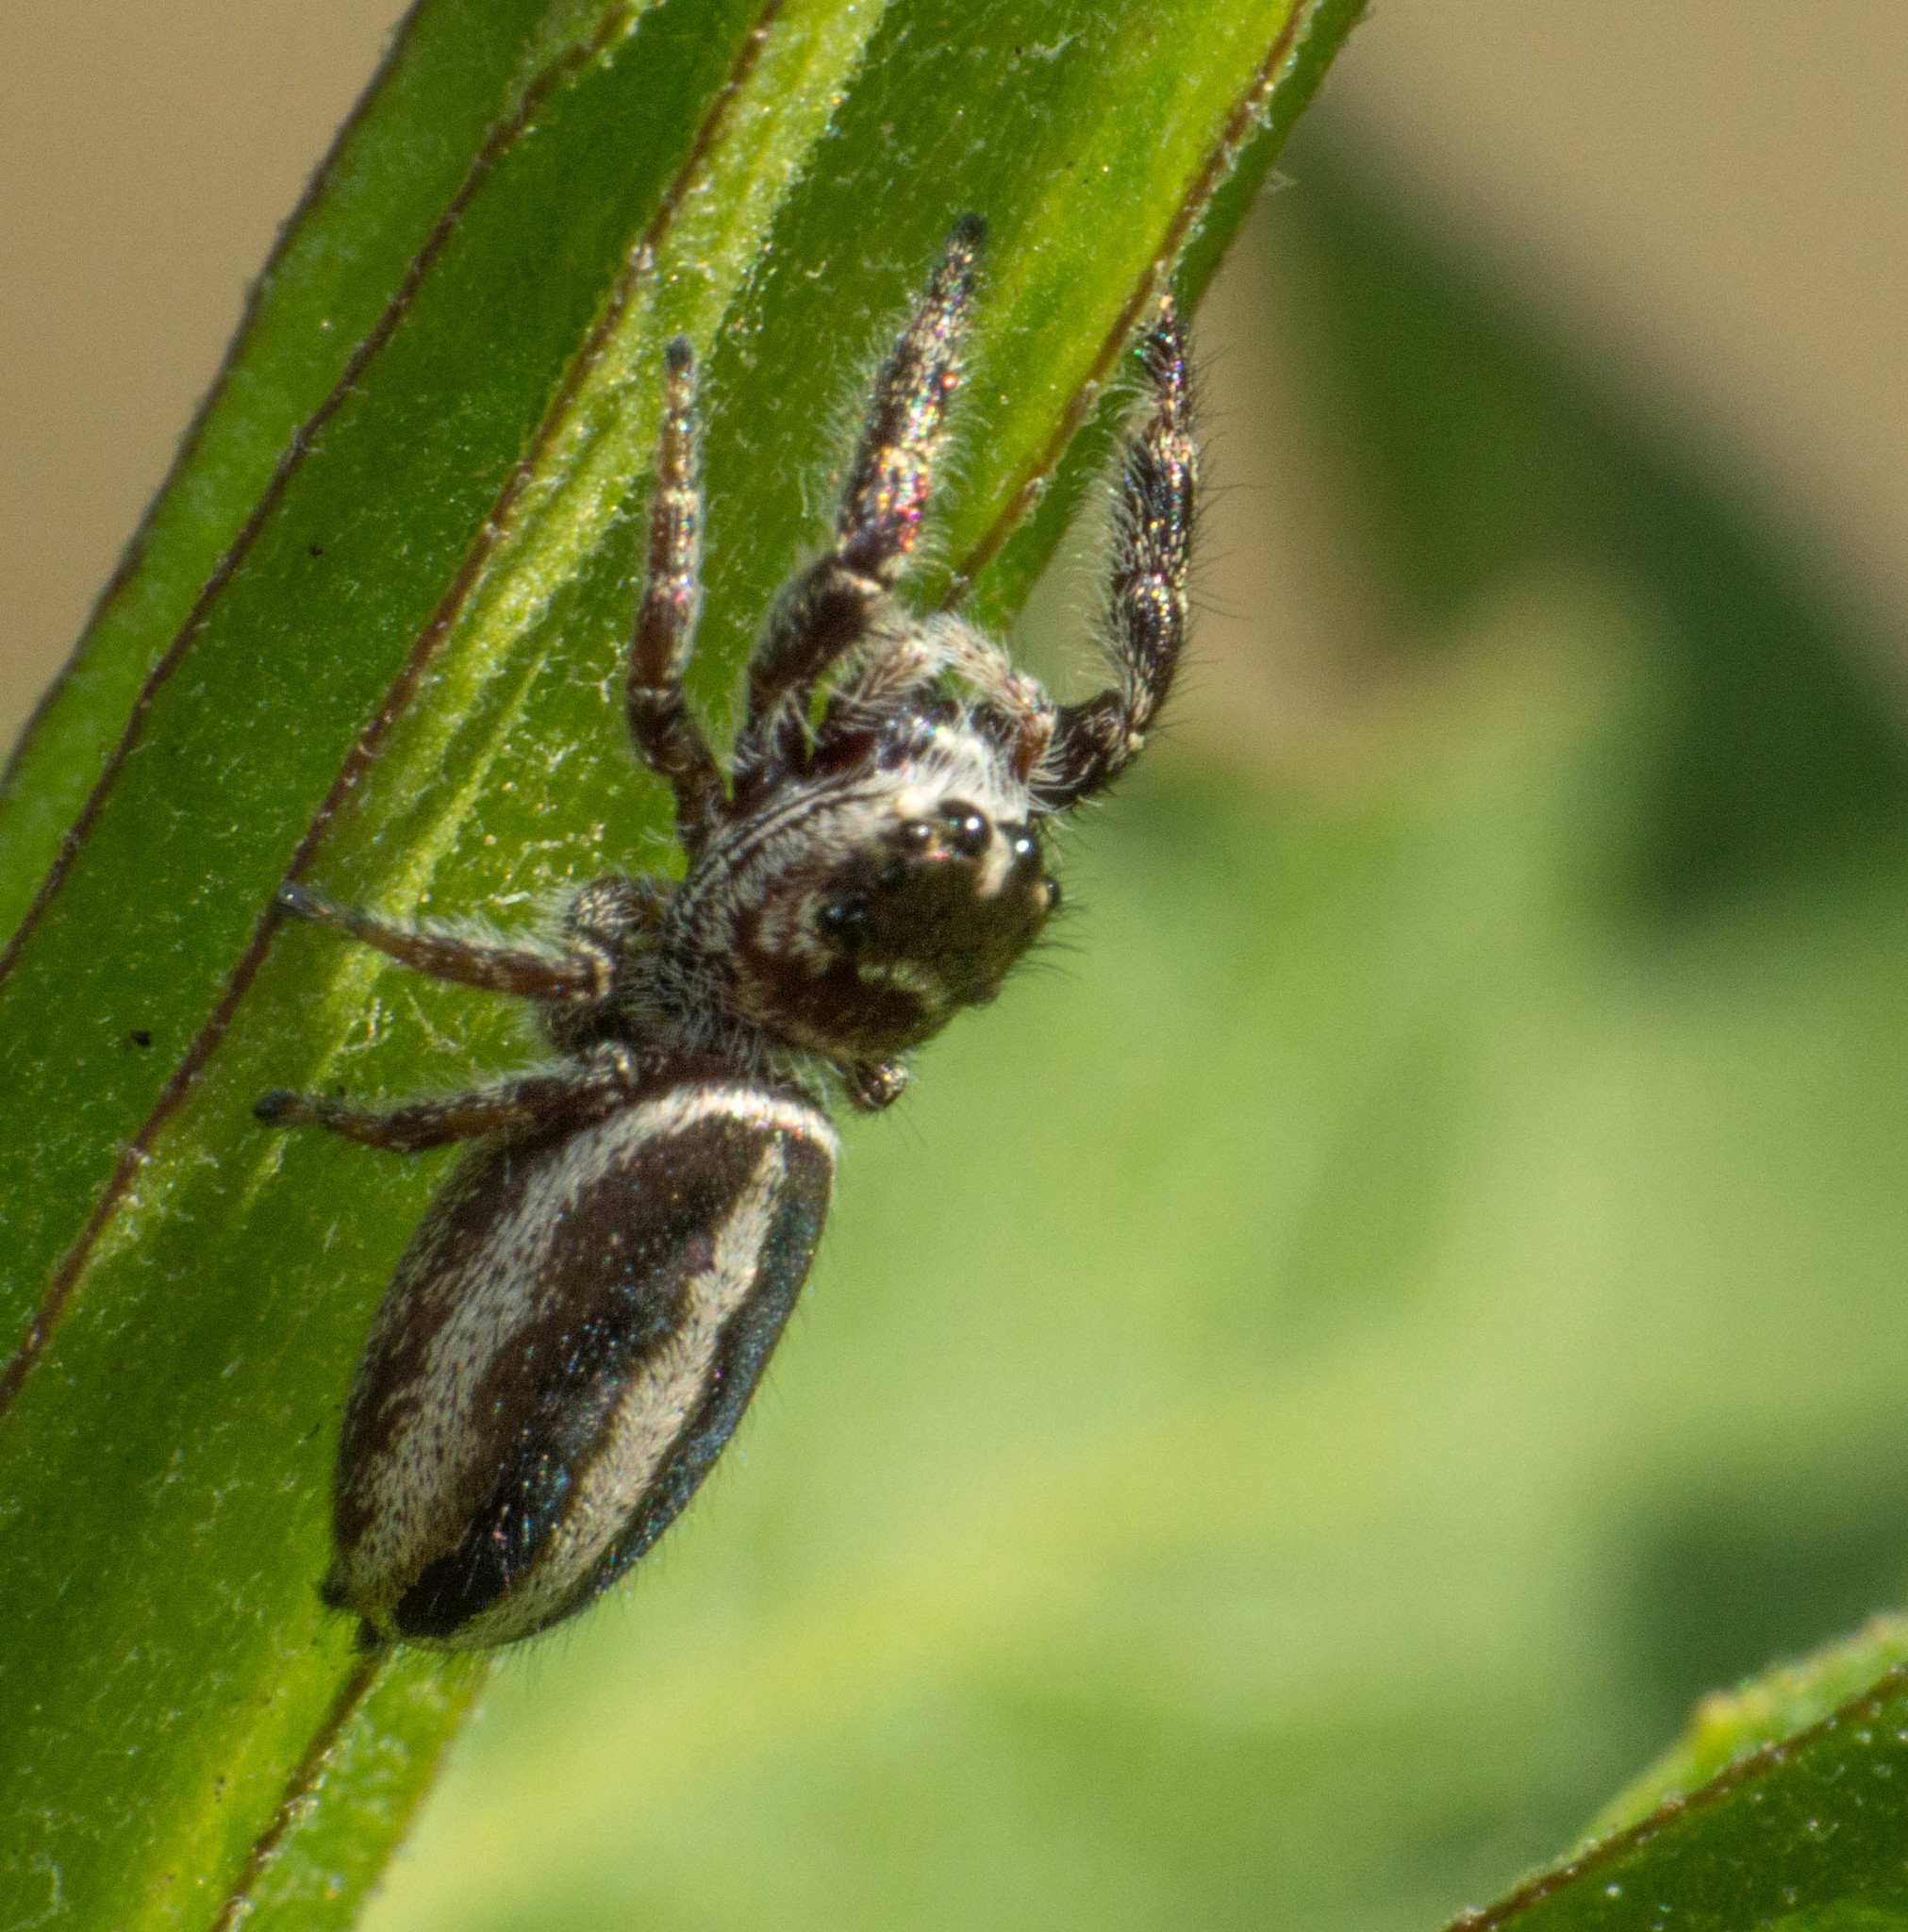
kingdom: Animalia
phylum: Arthropoda
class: Arachnida
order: Araneae
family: Salticidae
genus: Dendryphantes
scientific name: Dendryphantes mordax
